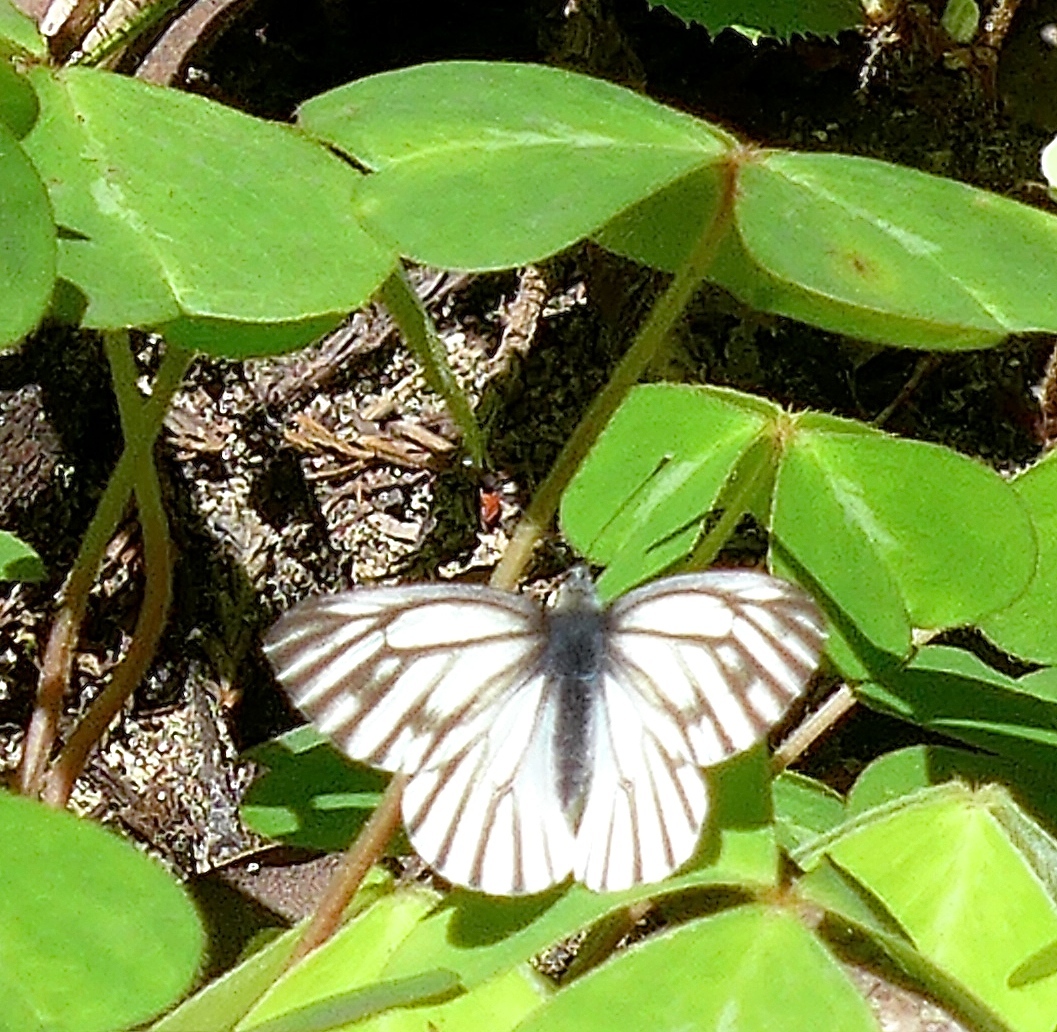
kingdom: Animalia
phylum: Arthropoda
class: Insecta
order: Lepidoptera
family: Pieridae
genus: Pieris
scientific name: Pieris marginalis
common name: Margined white
